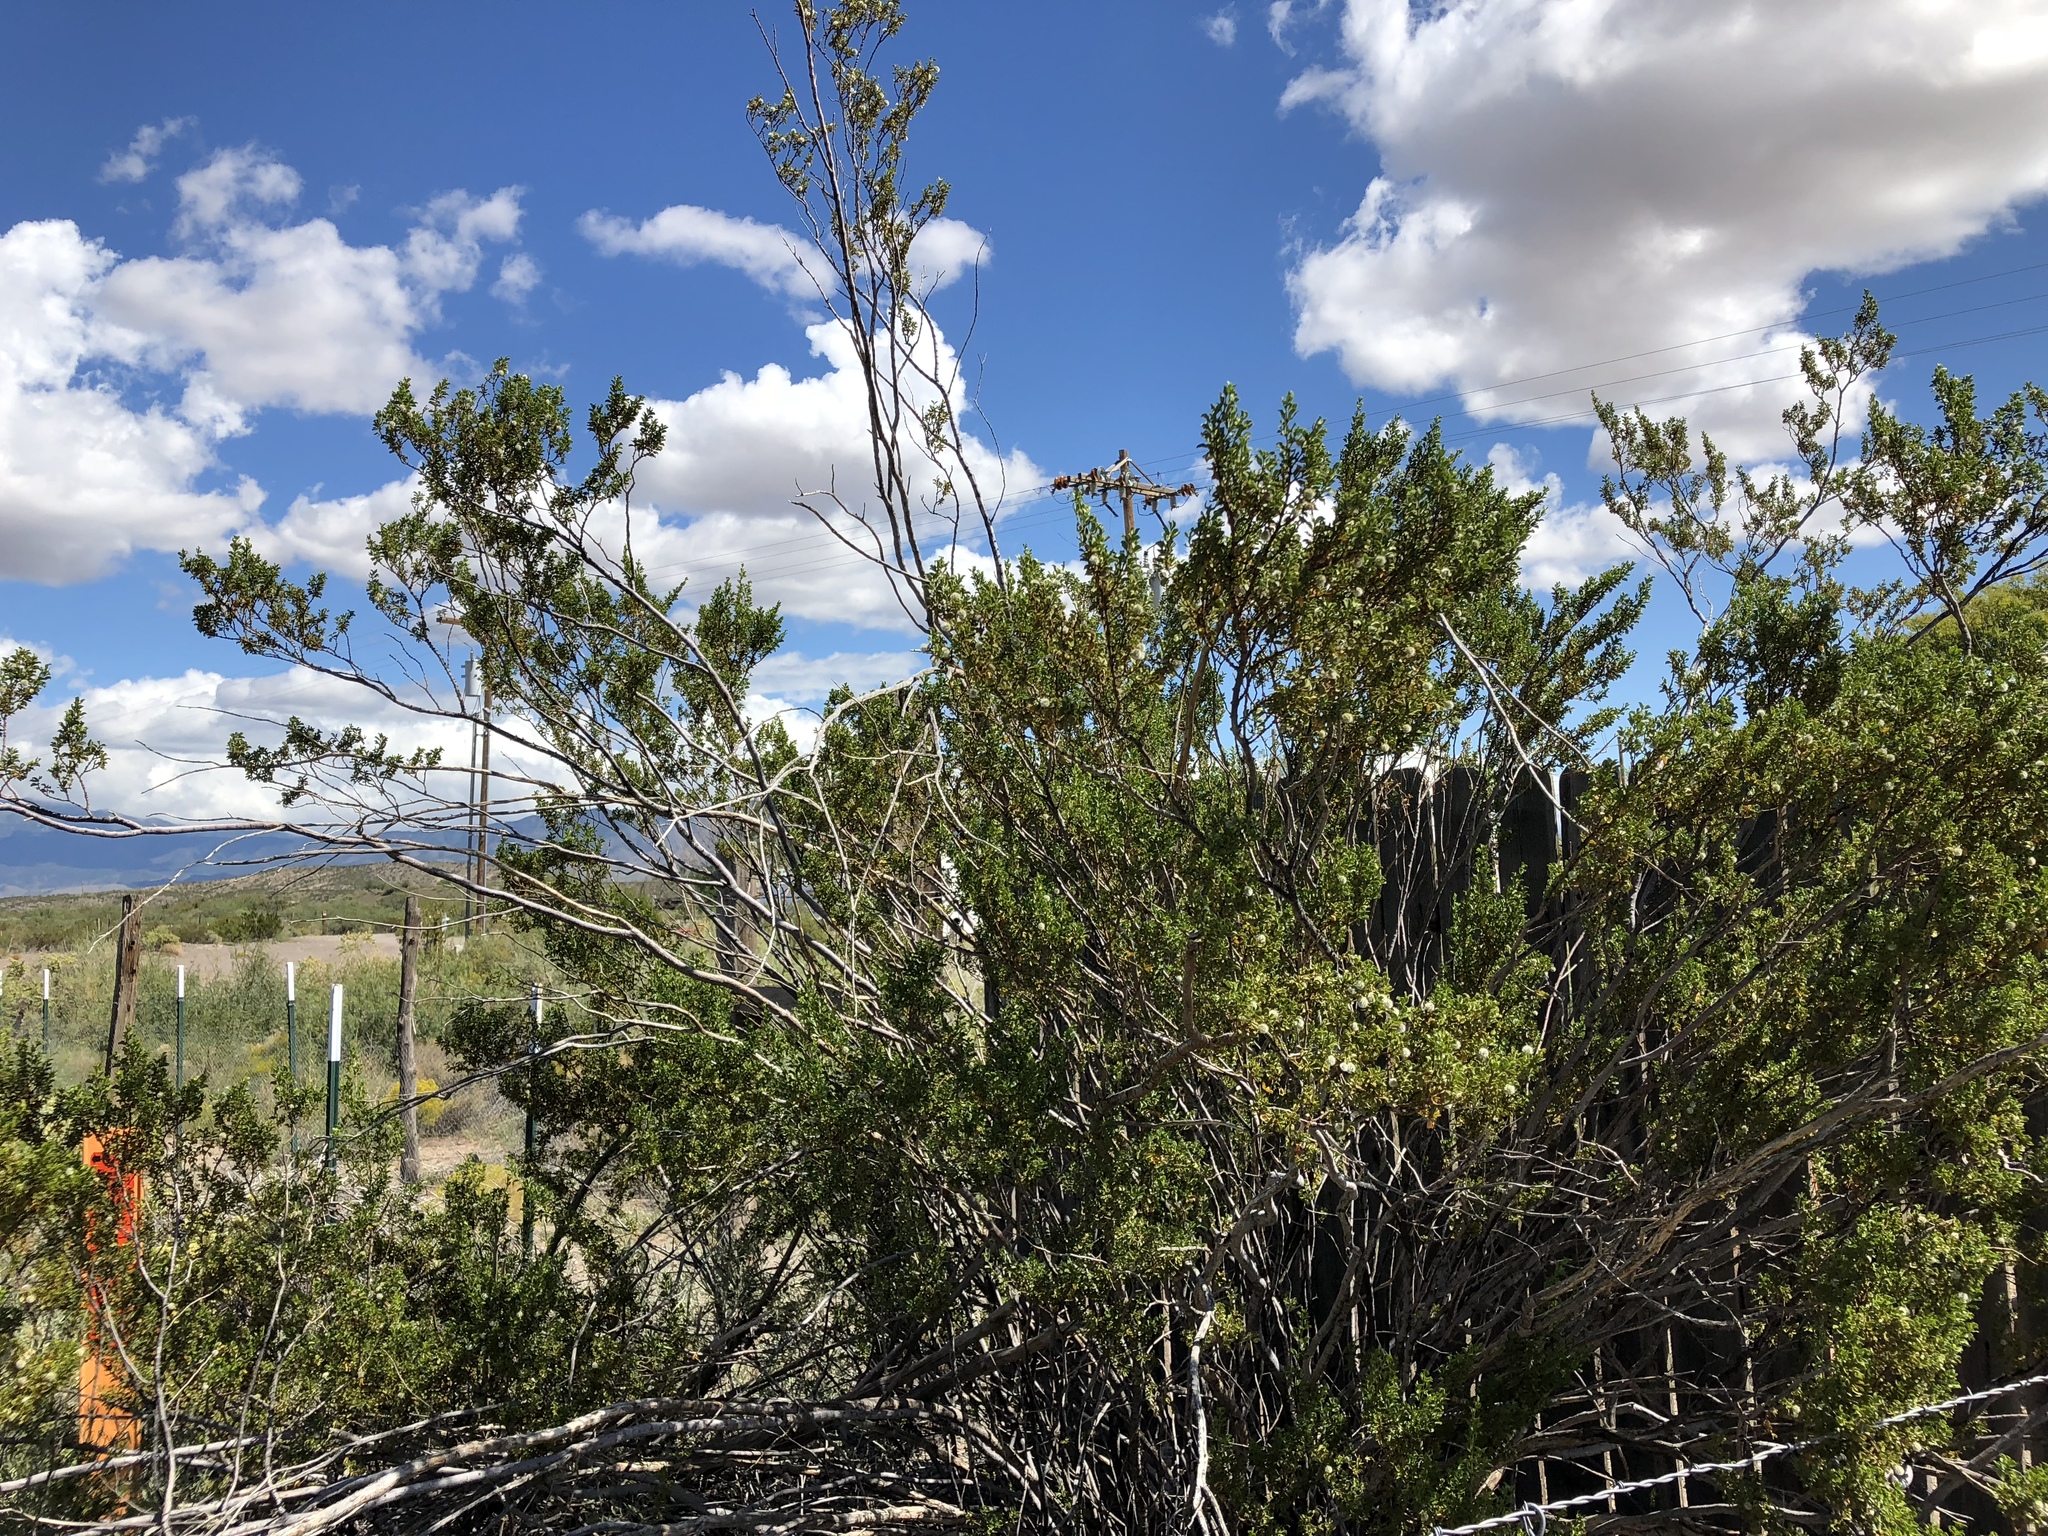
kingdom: Plantae
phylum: Tracheophyta
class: Magnoliopsida
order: Zygophyllales
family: Zygophyllaceae
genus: Larrea
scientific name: Larrea tridentata
